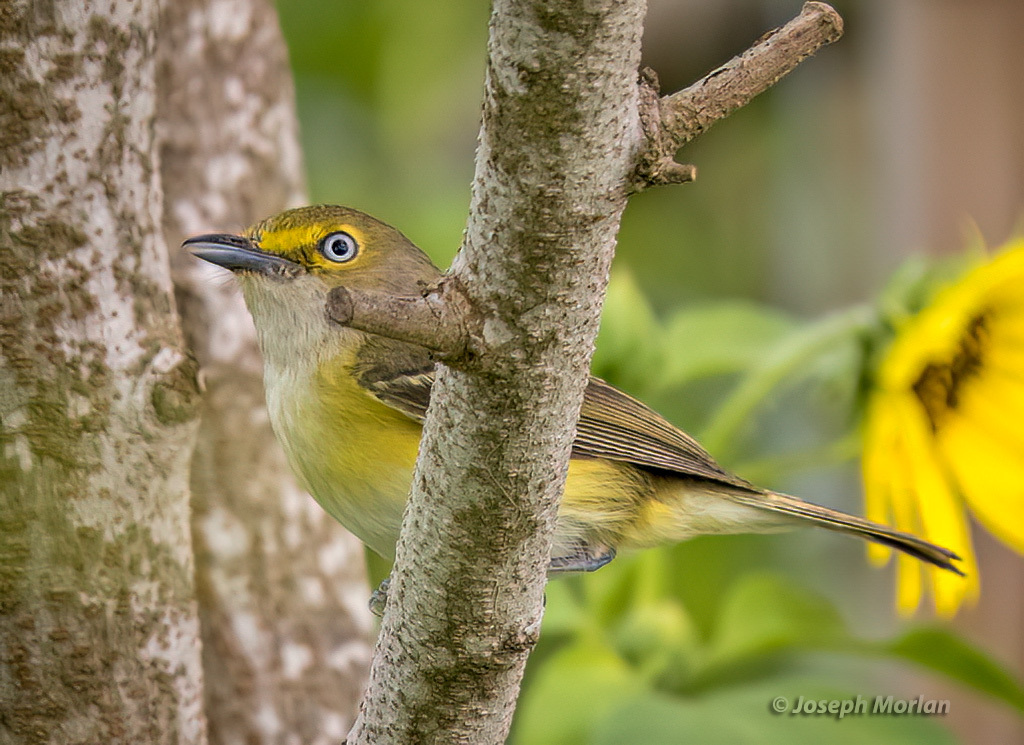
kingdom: Animalia
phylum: Chordata
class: Aves
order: Passeriformes
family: Vireonidae
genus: Vireo
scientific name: Vireo griseus
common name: White-eyed vireo
